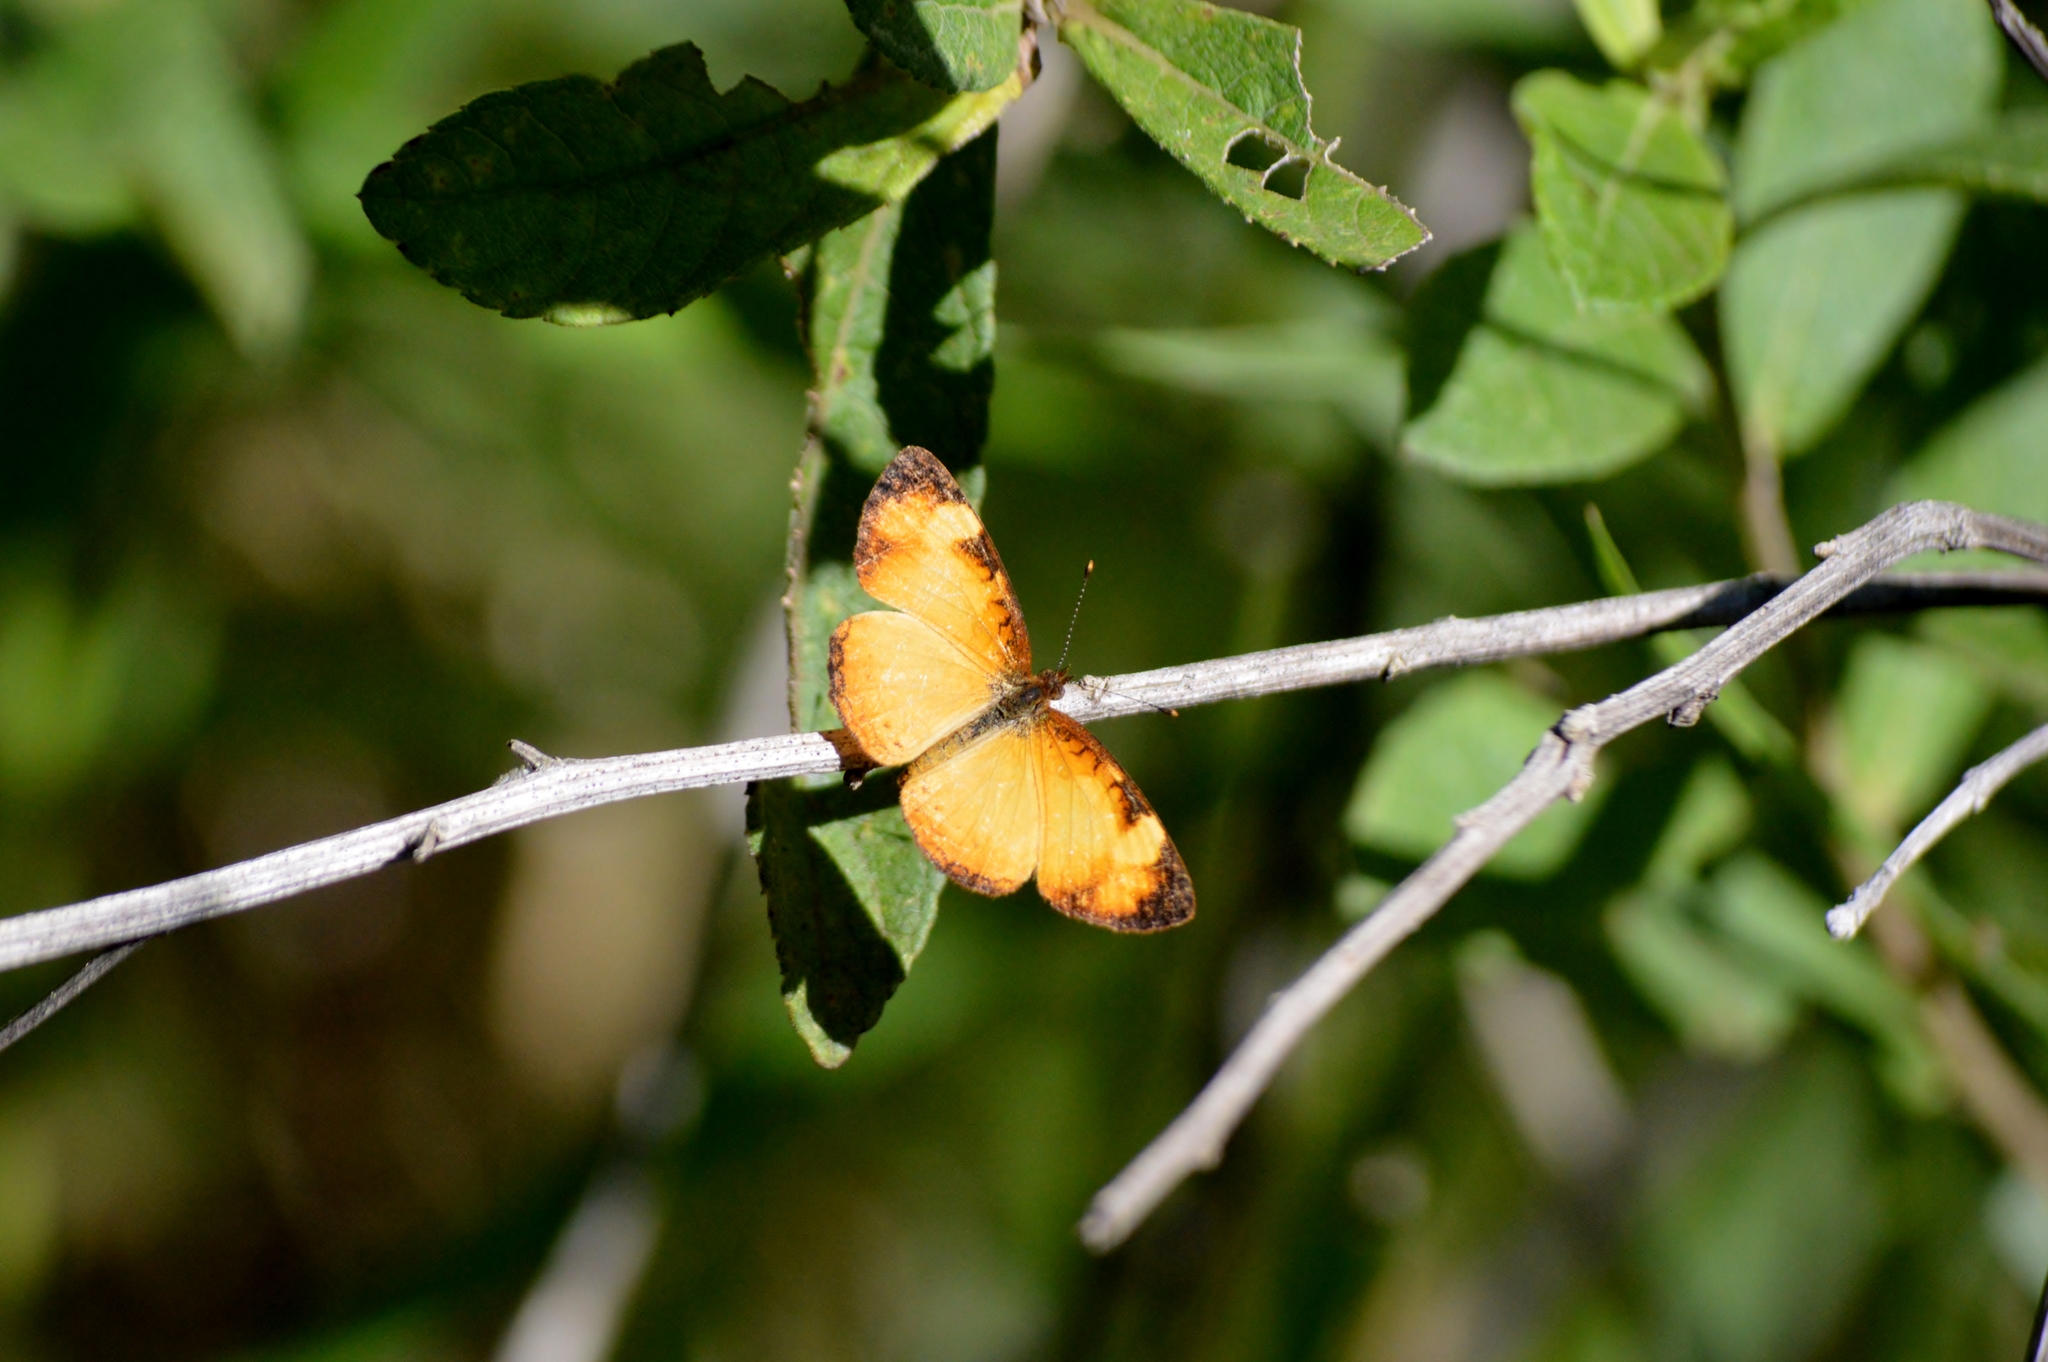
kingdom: Animalia
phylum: Arthropoda
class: Insecta
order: Lepidoptera
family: Nymphalidae
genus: Tegosa
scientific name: Tegosa claudina
